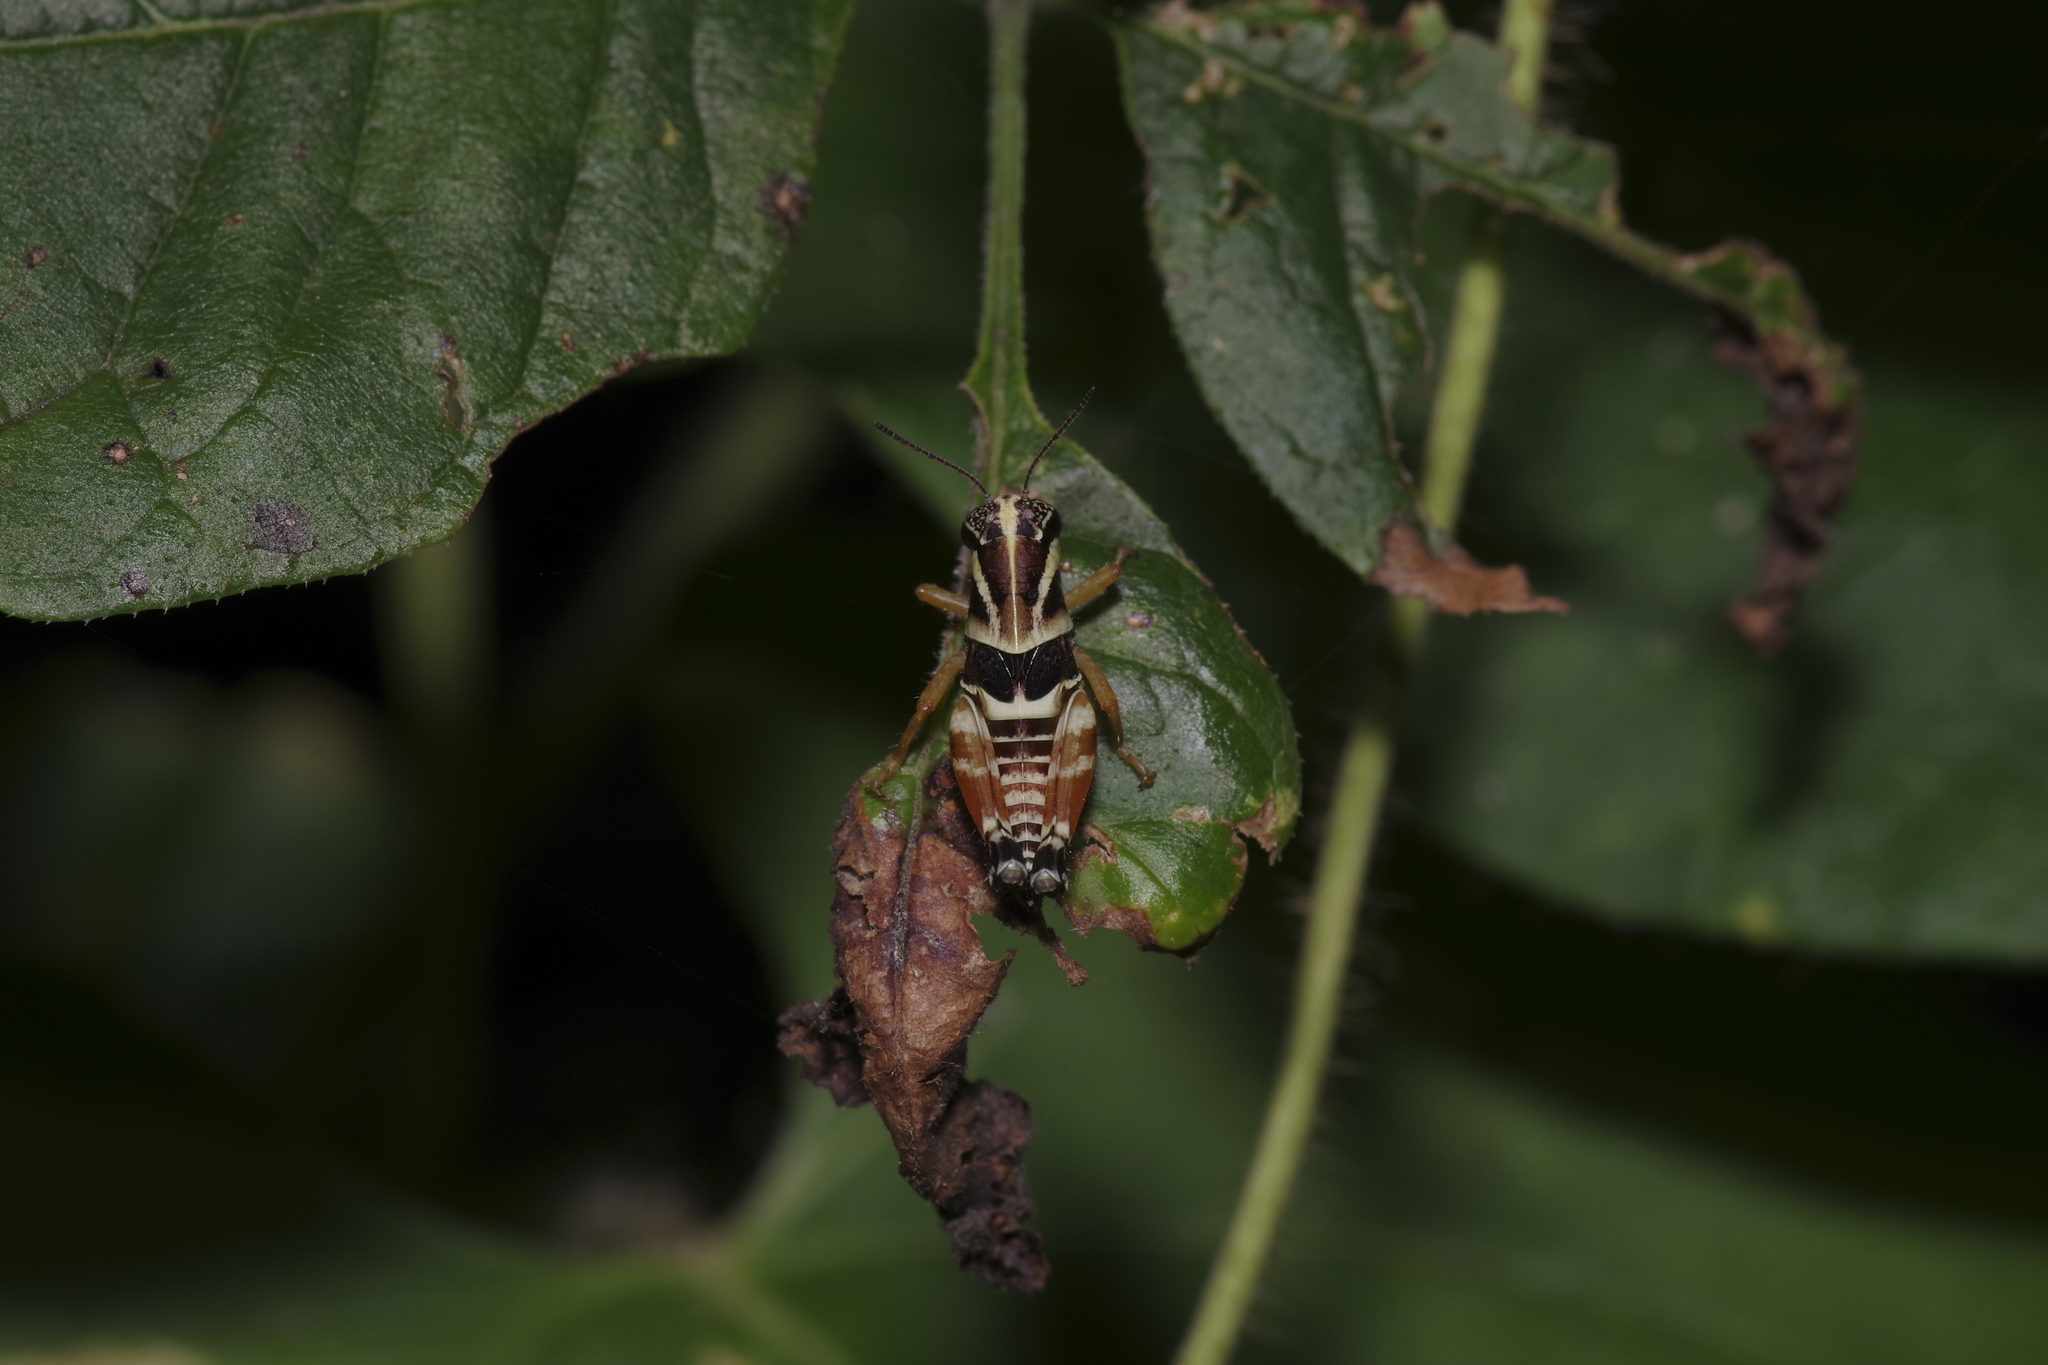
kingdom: Animalia
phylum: Arthropoda
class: Insecta
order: Orthoptera
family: Acrididae
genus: Aidemona
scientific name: Aidemona azteca
